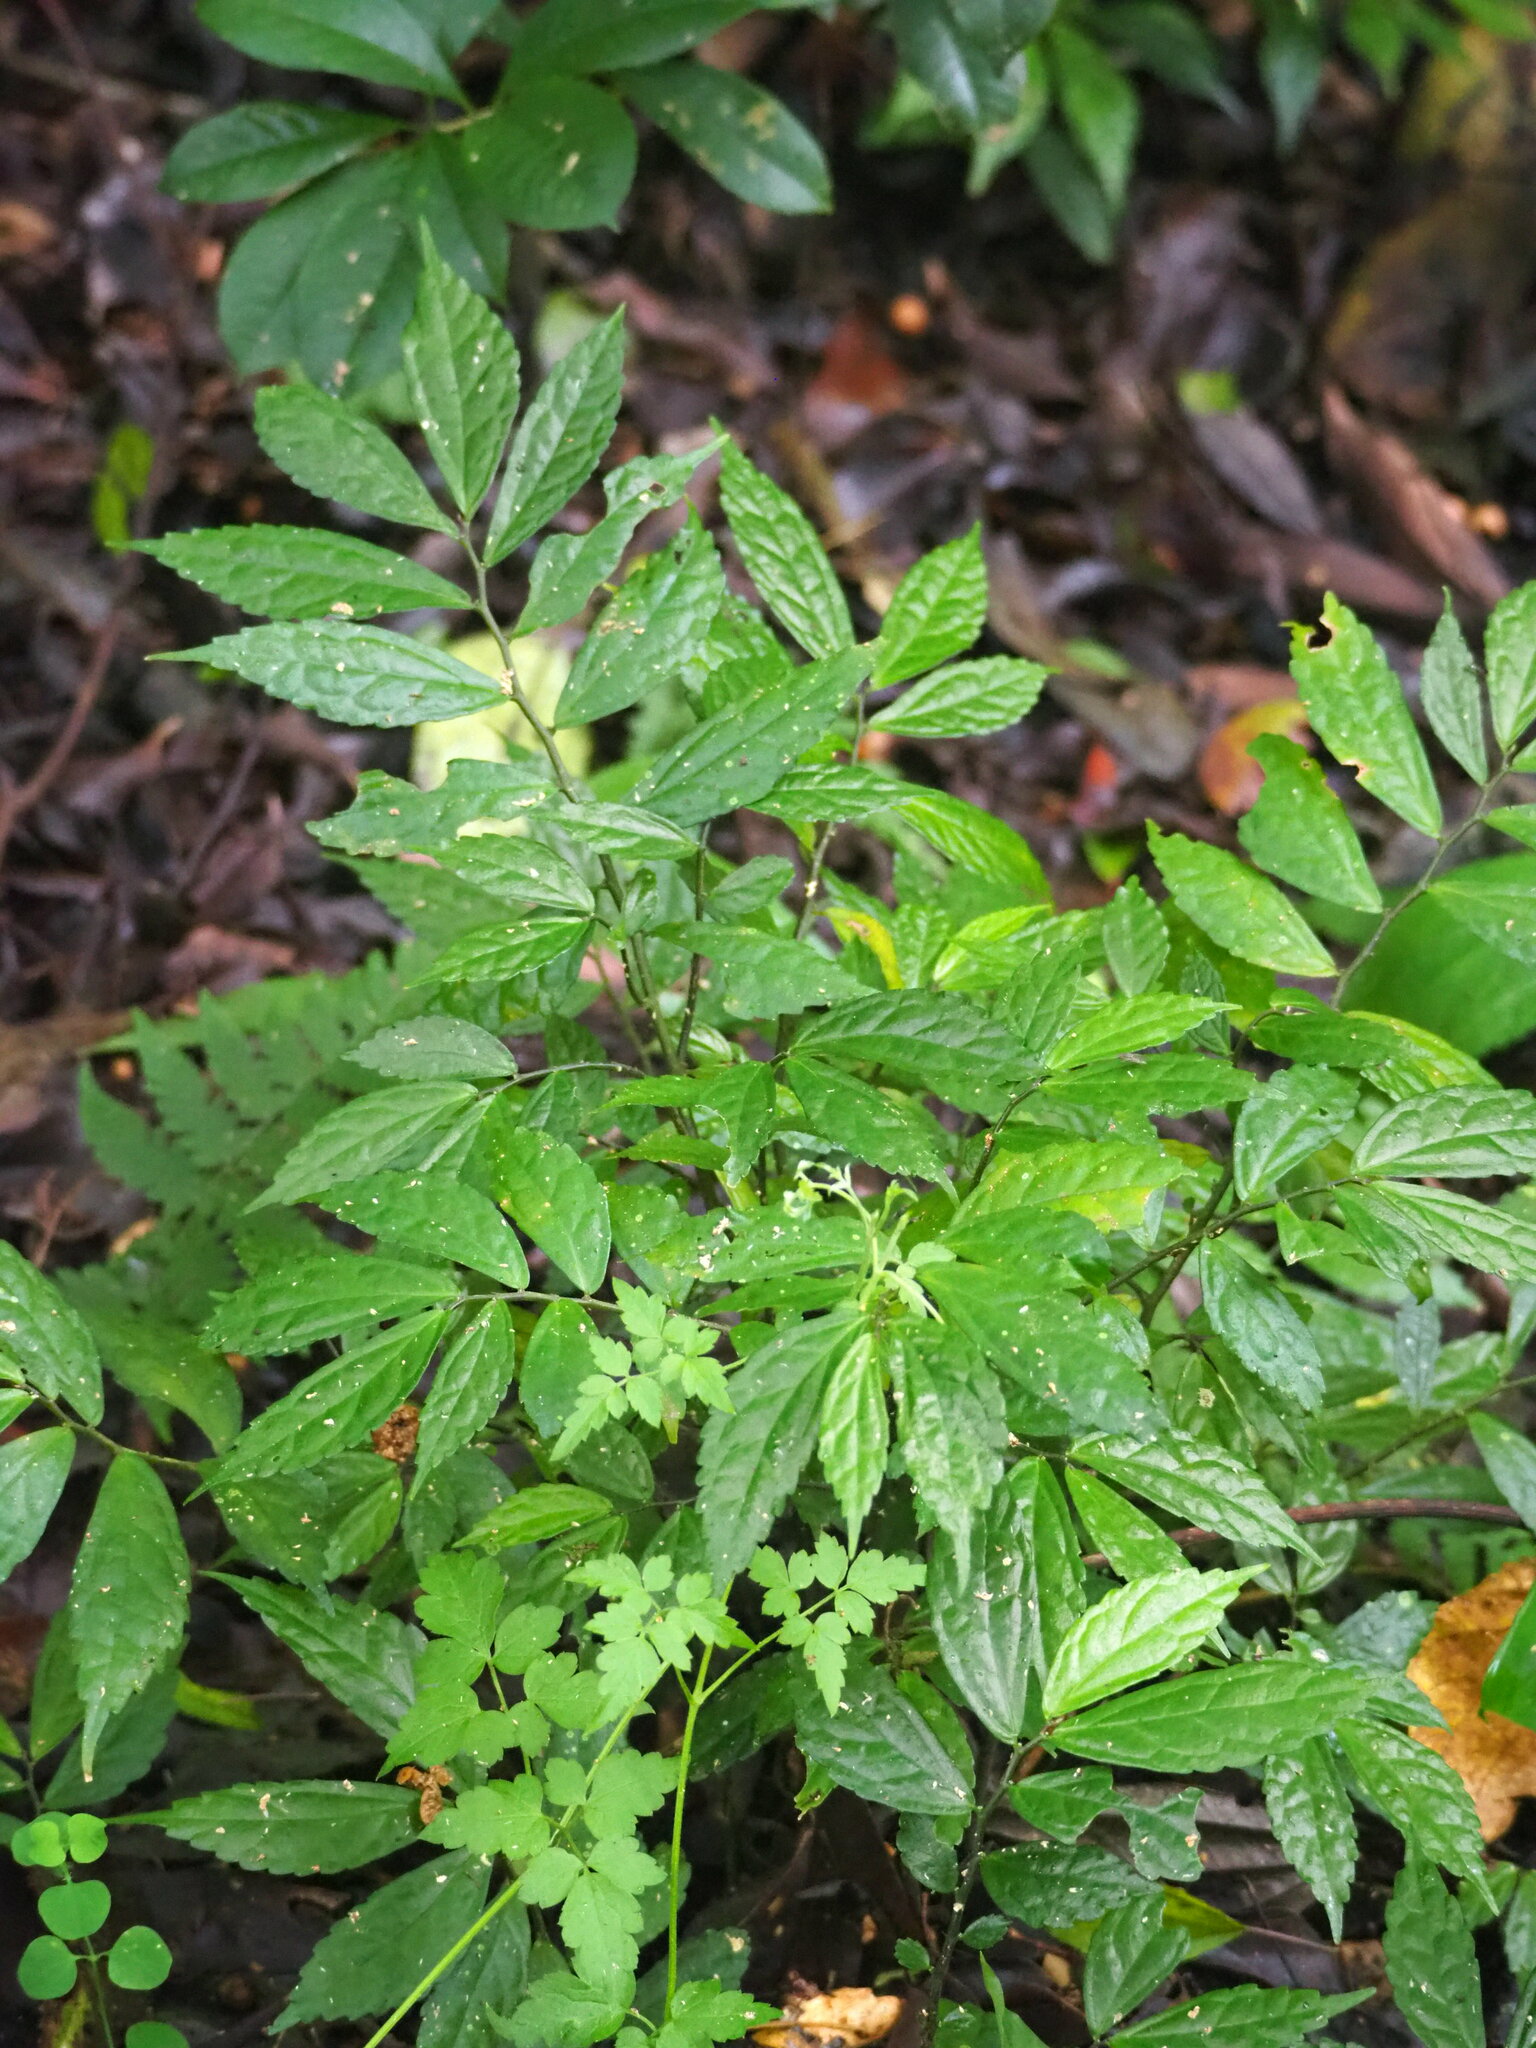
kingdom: Plantae
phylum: Tracheophyta
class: Magnoliopsida
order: Rosales
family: Urticaceae
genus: Elatostema
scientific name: Elatostema lineolatum
